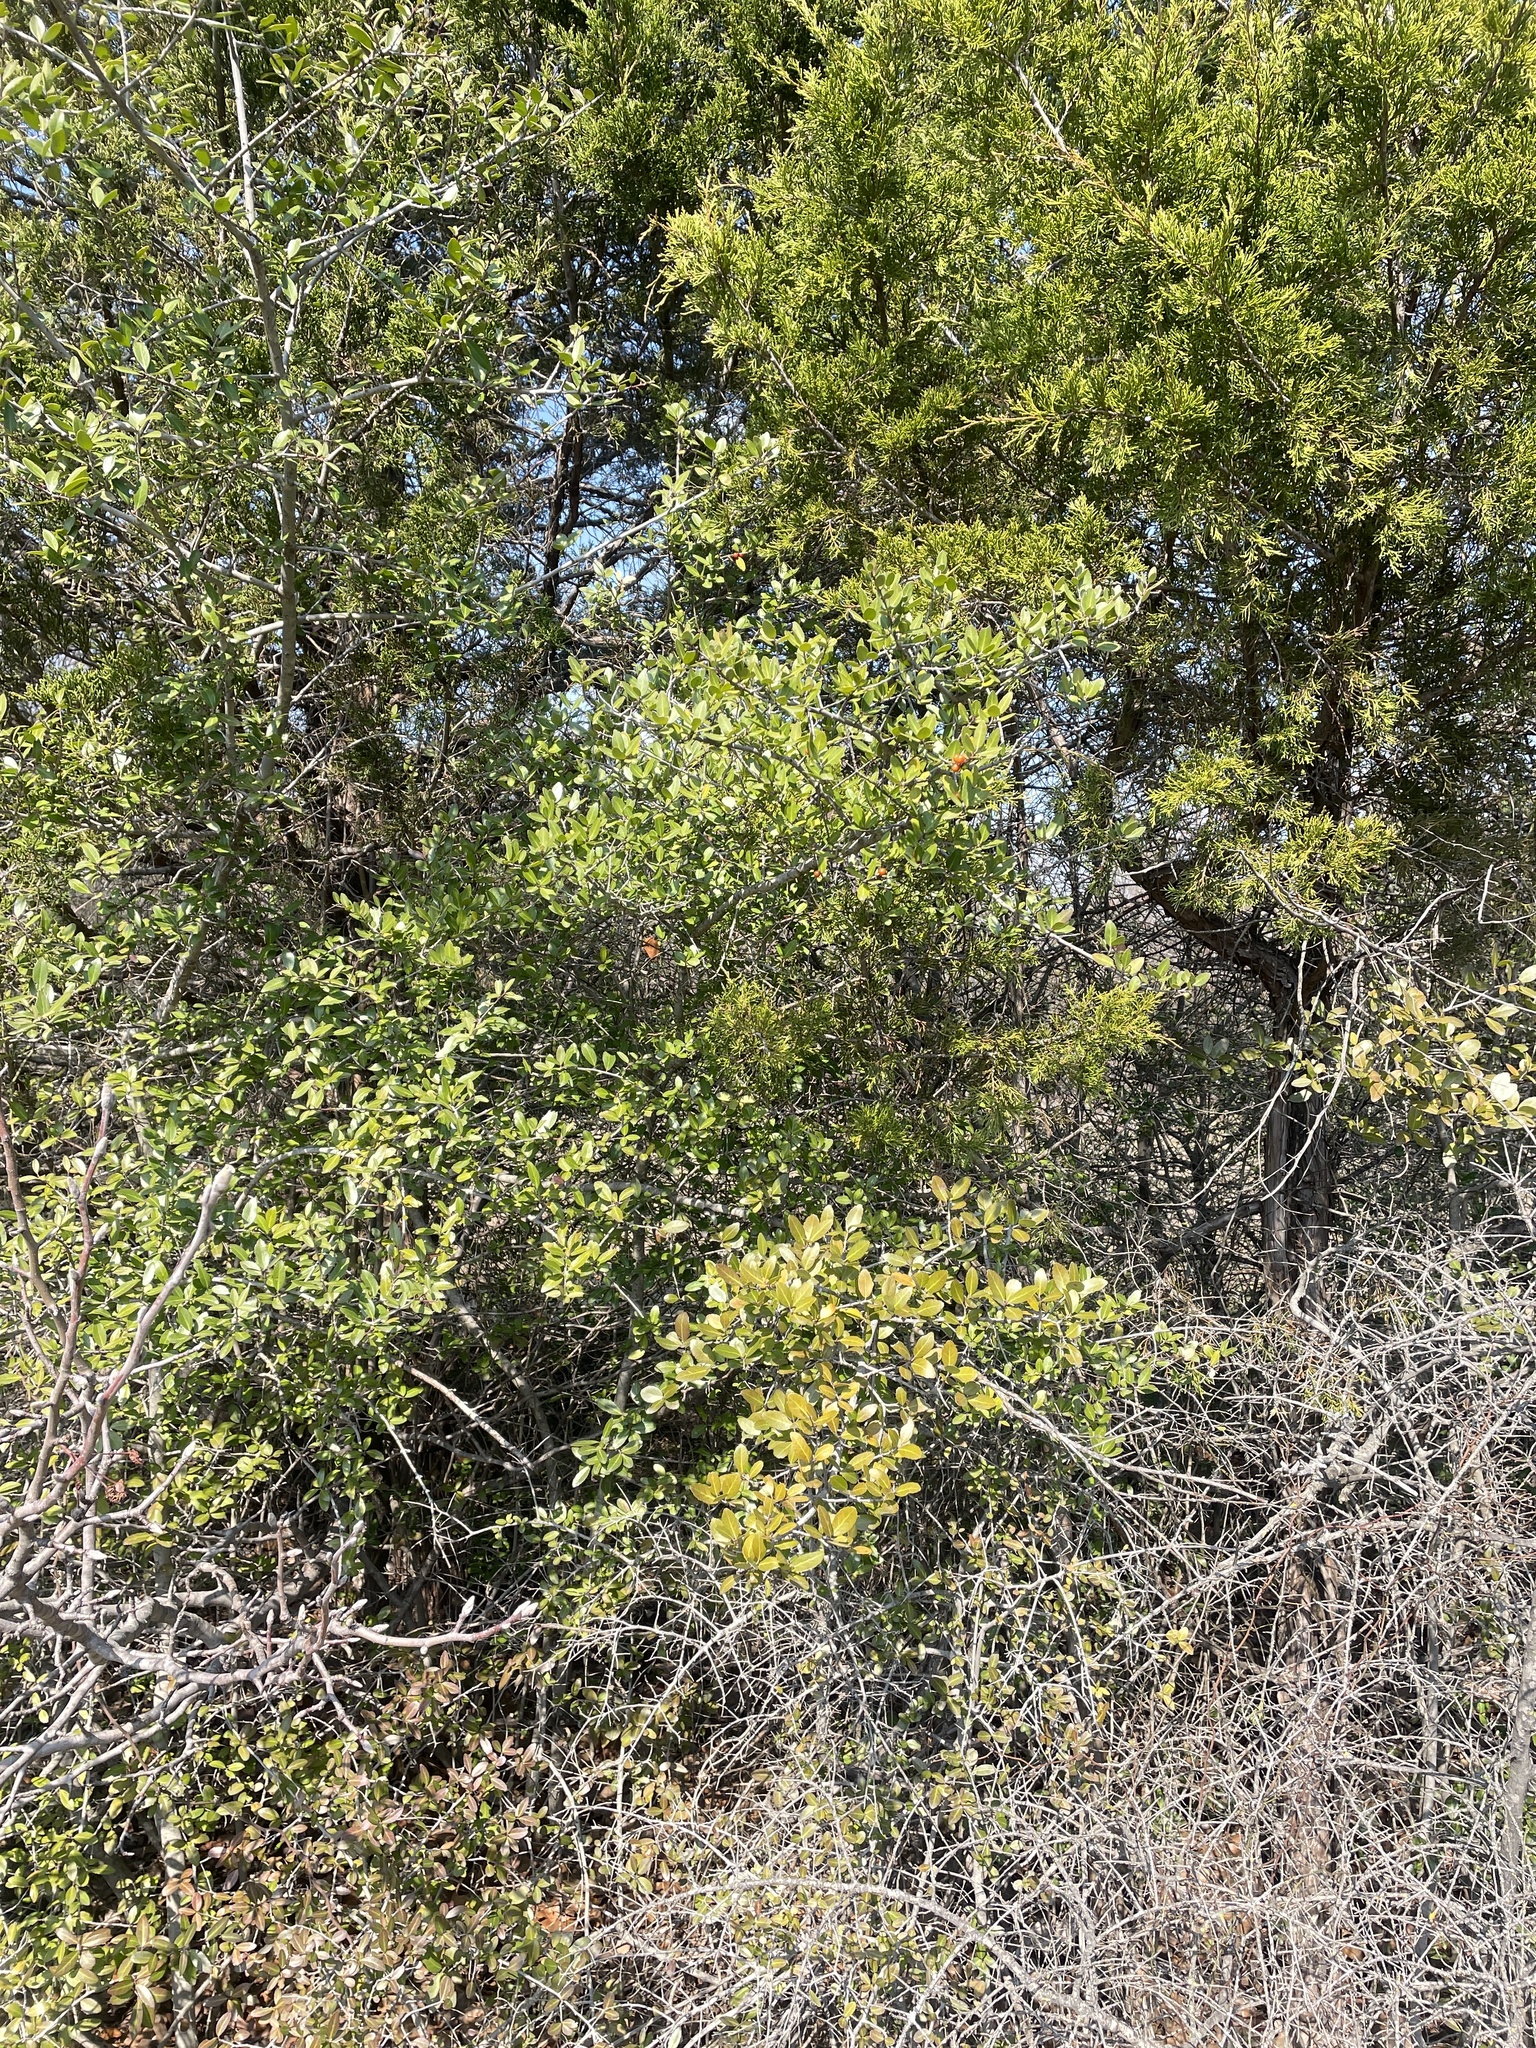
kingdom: Plantae
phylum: Tracheophyta
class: Magnoliopsida
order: Aquifoliales
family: Aquifoliaceae
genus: Ilex
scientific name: Ilex vomitoria
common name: Yaupon holly
